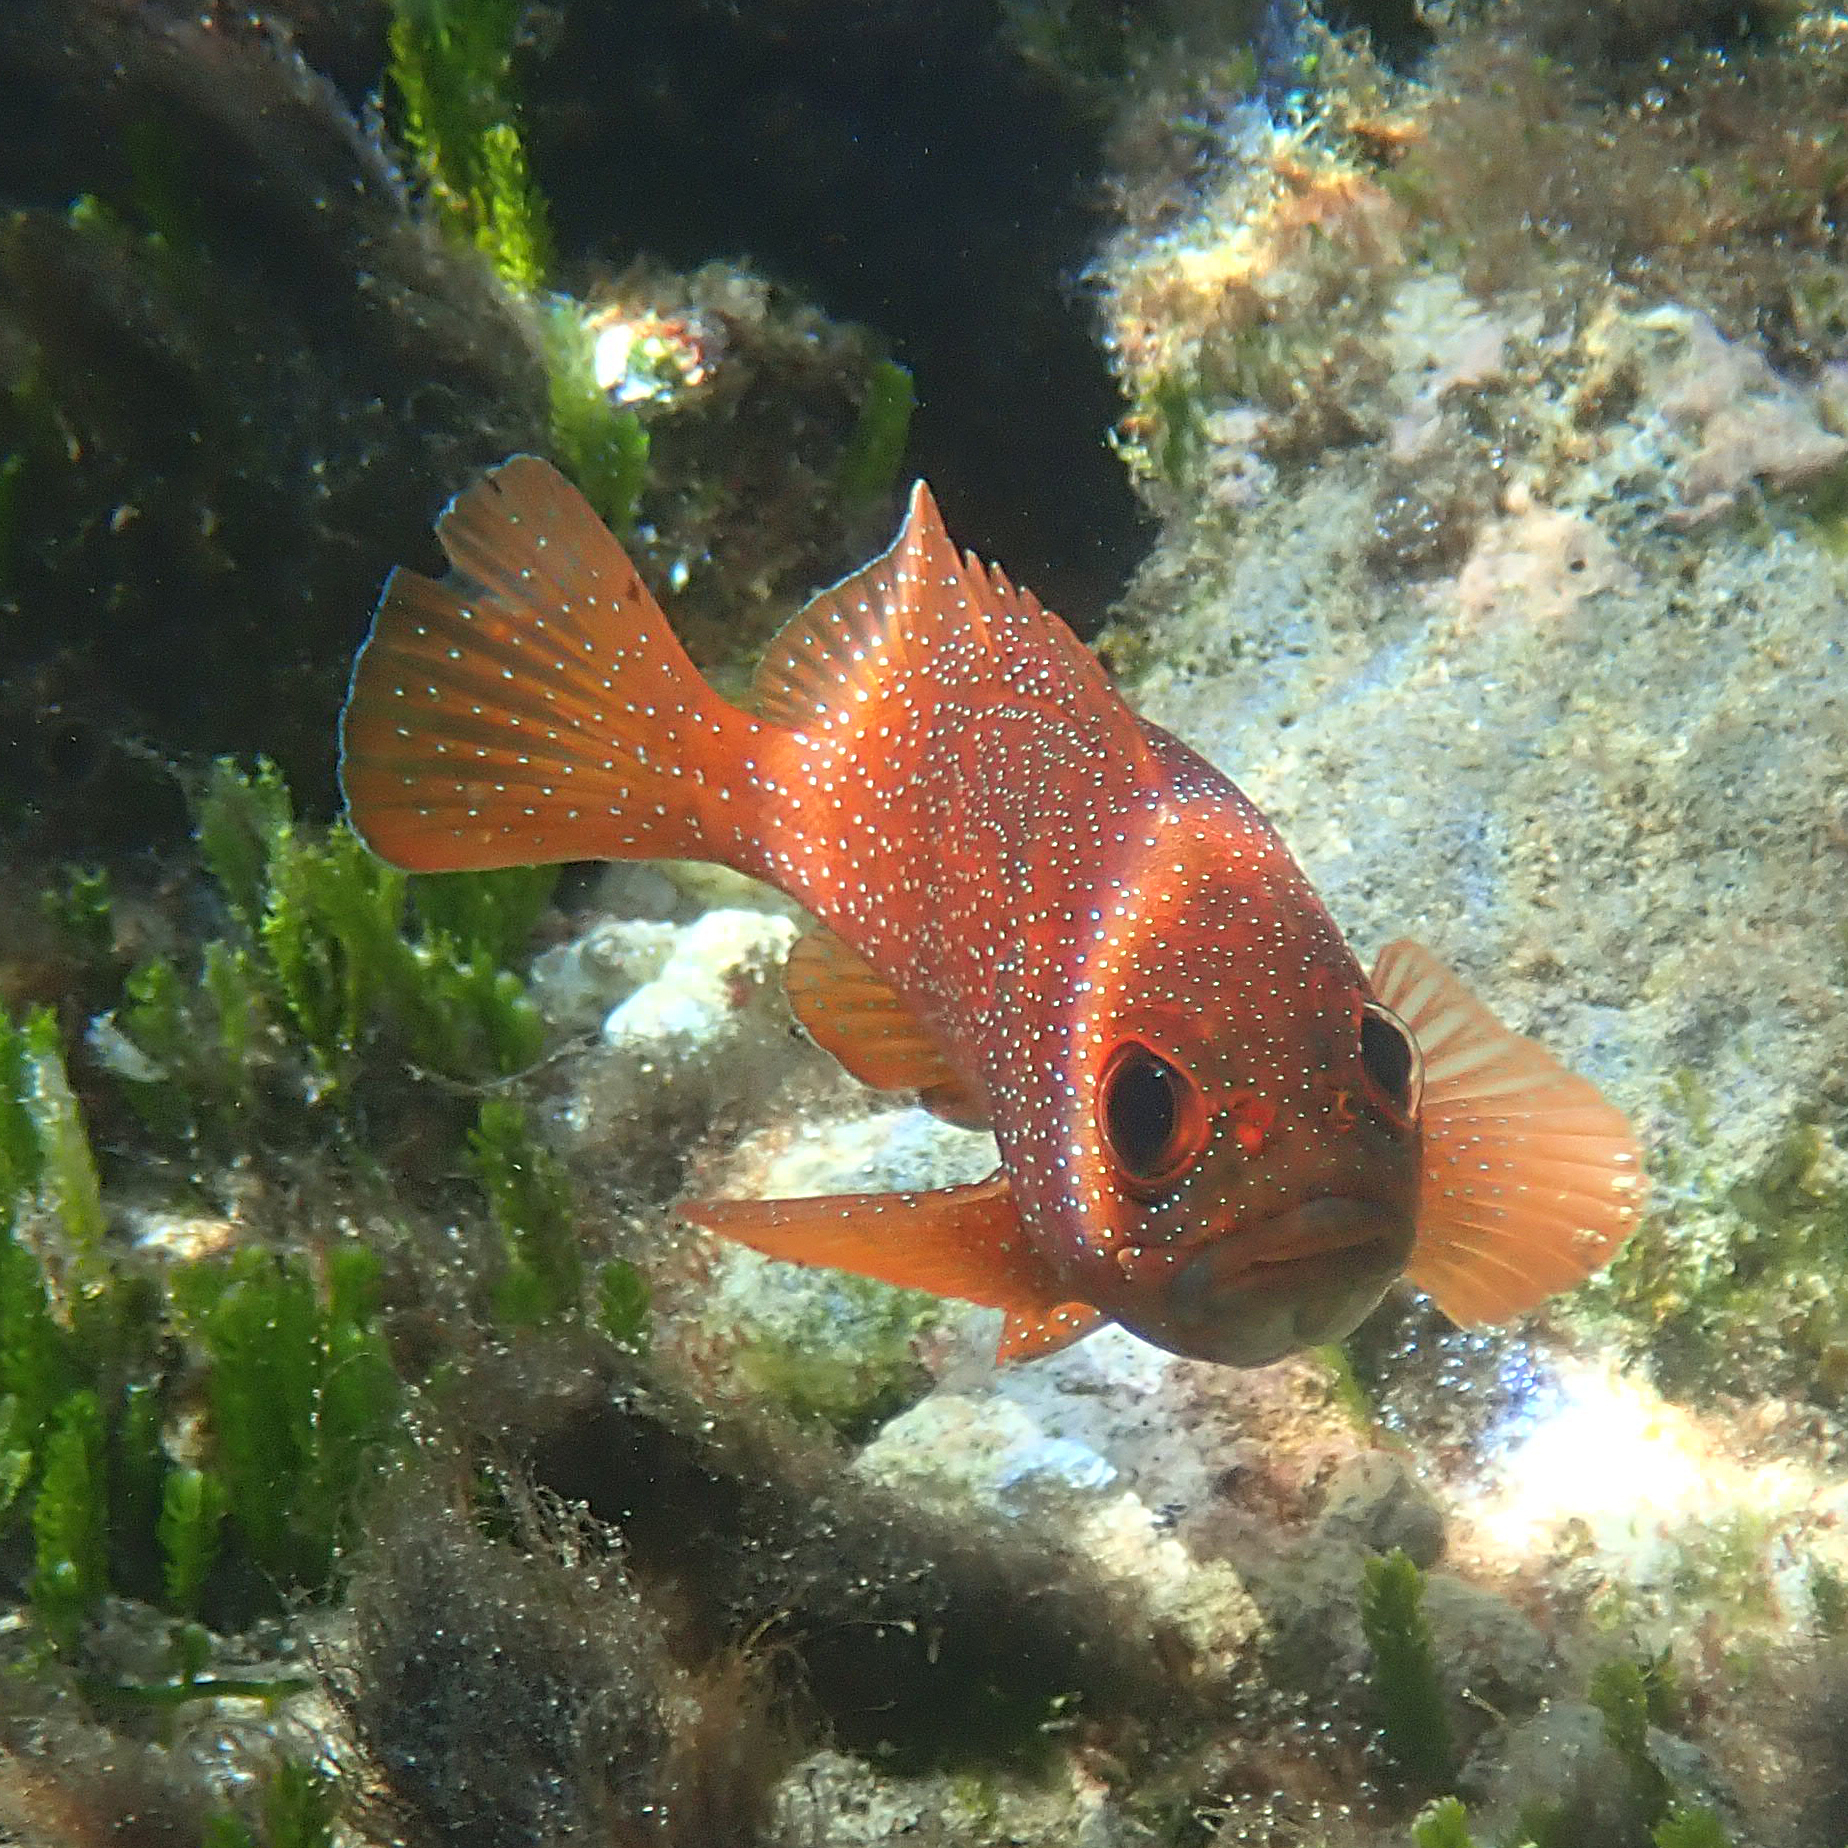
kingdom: Animalia
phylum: Chordata
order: Perciformes
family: Serranidae
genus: Trachypoma
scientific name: Trachypoma macracanthus
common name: Toadstool grouper
